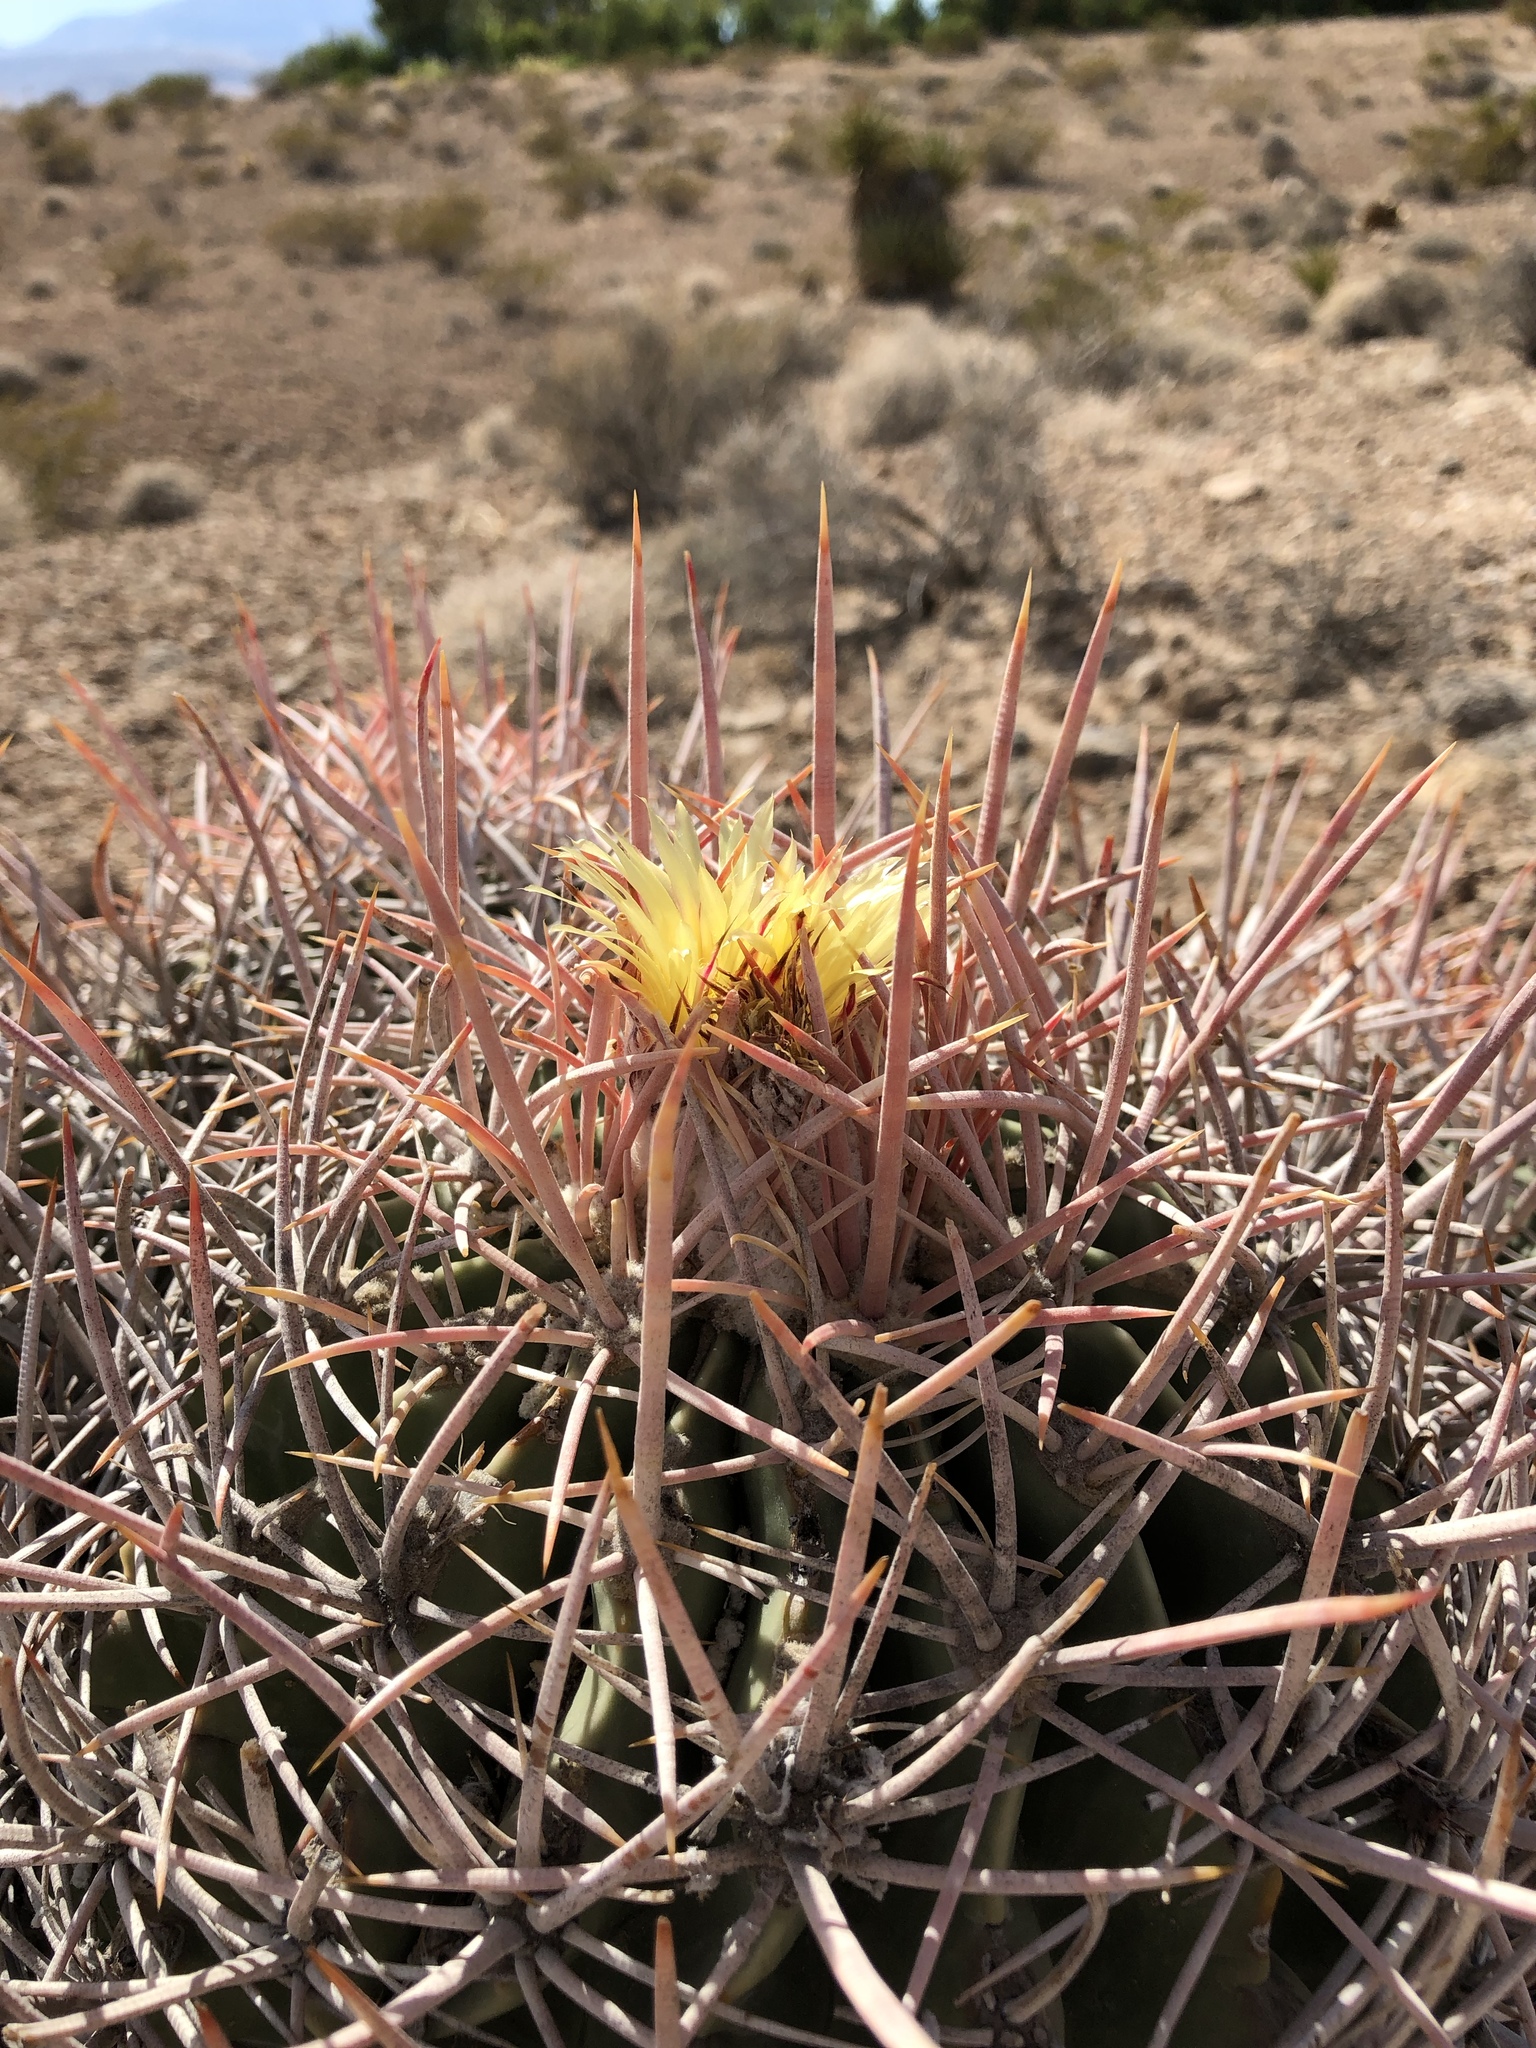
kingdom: Plantae
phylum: Tracheophyta
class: Magnoliopsida
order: Caryophyllales
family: Cactaceae
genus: Echinocactus
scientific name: Echinocactus polycephalus
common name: Cottontop cactus
